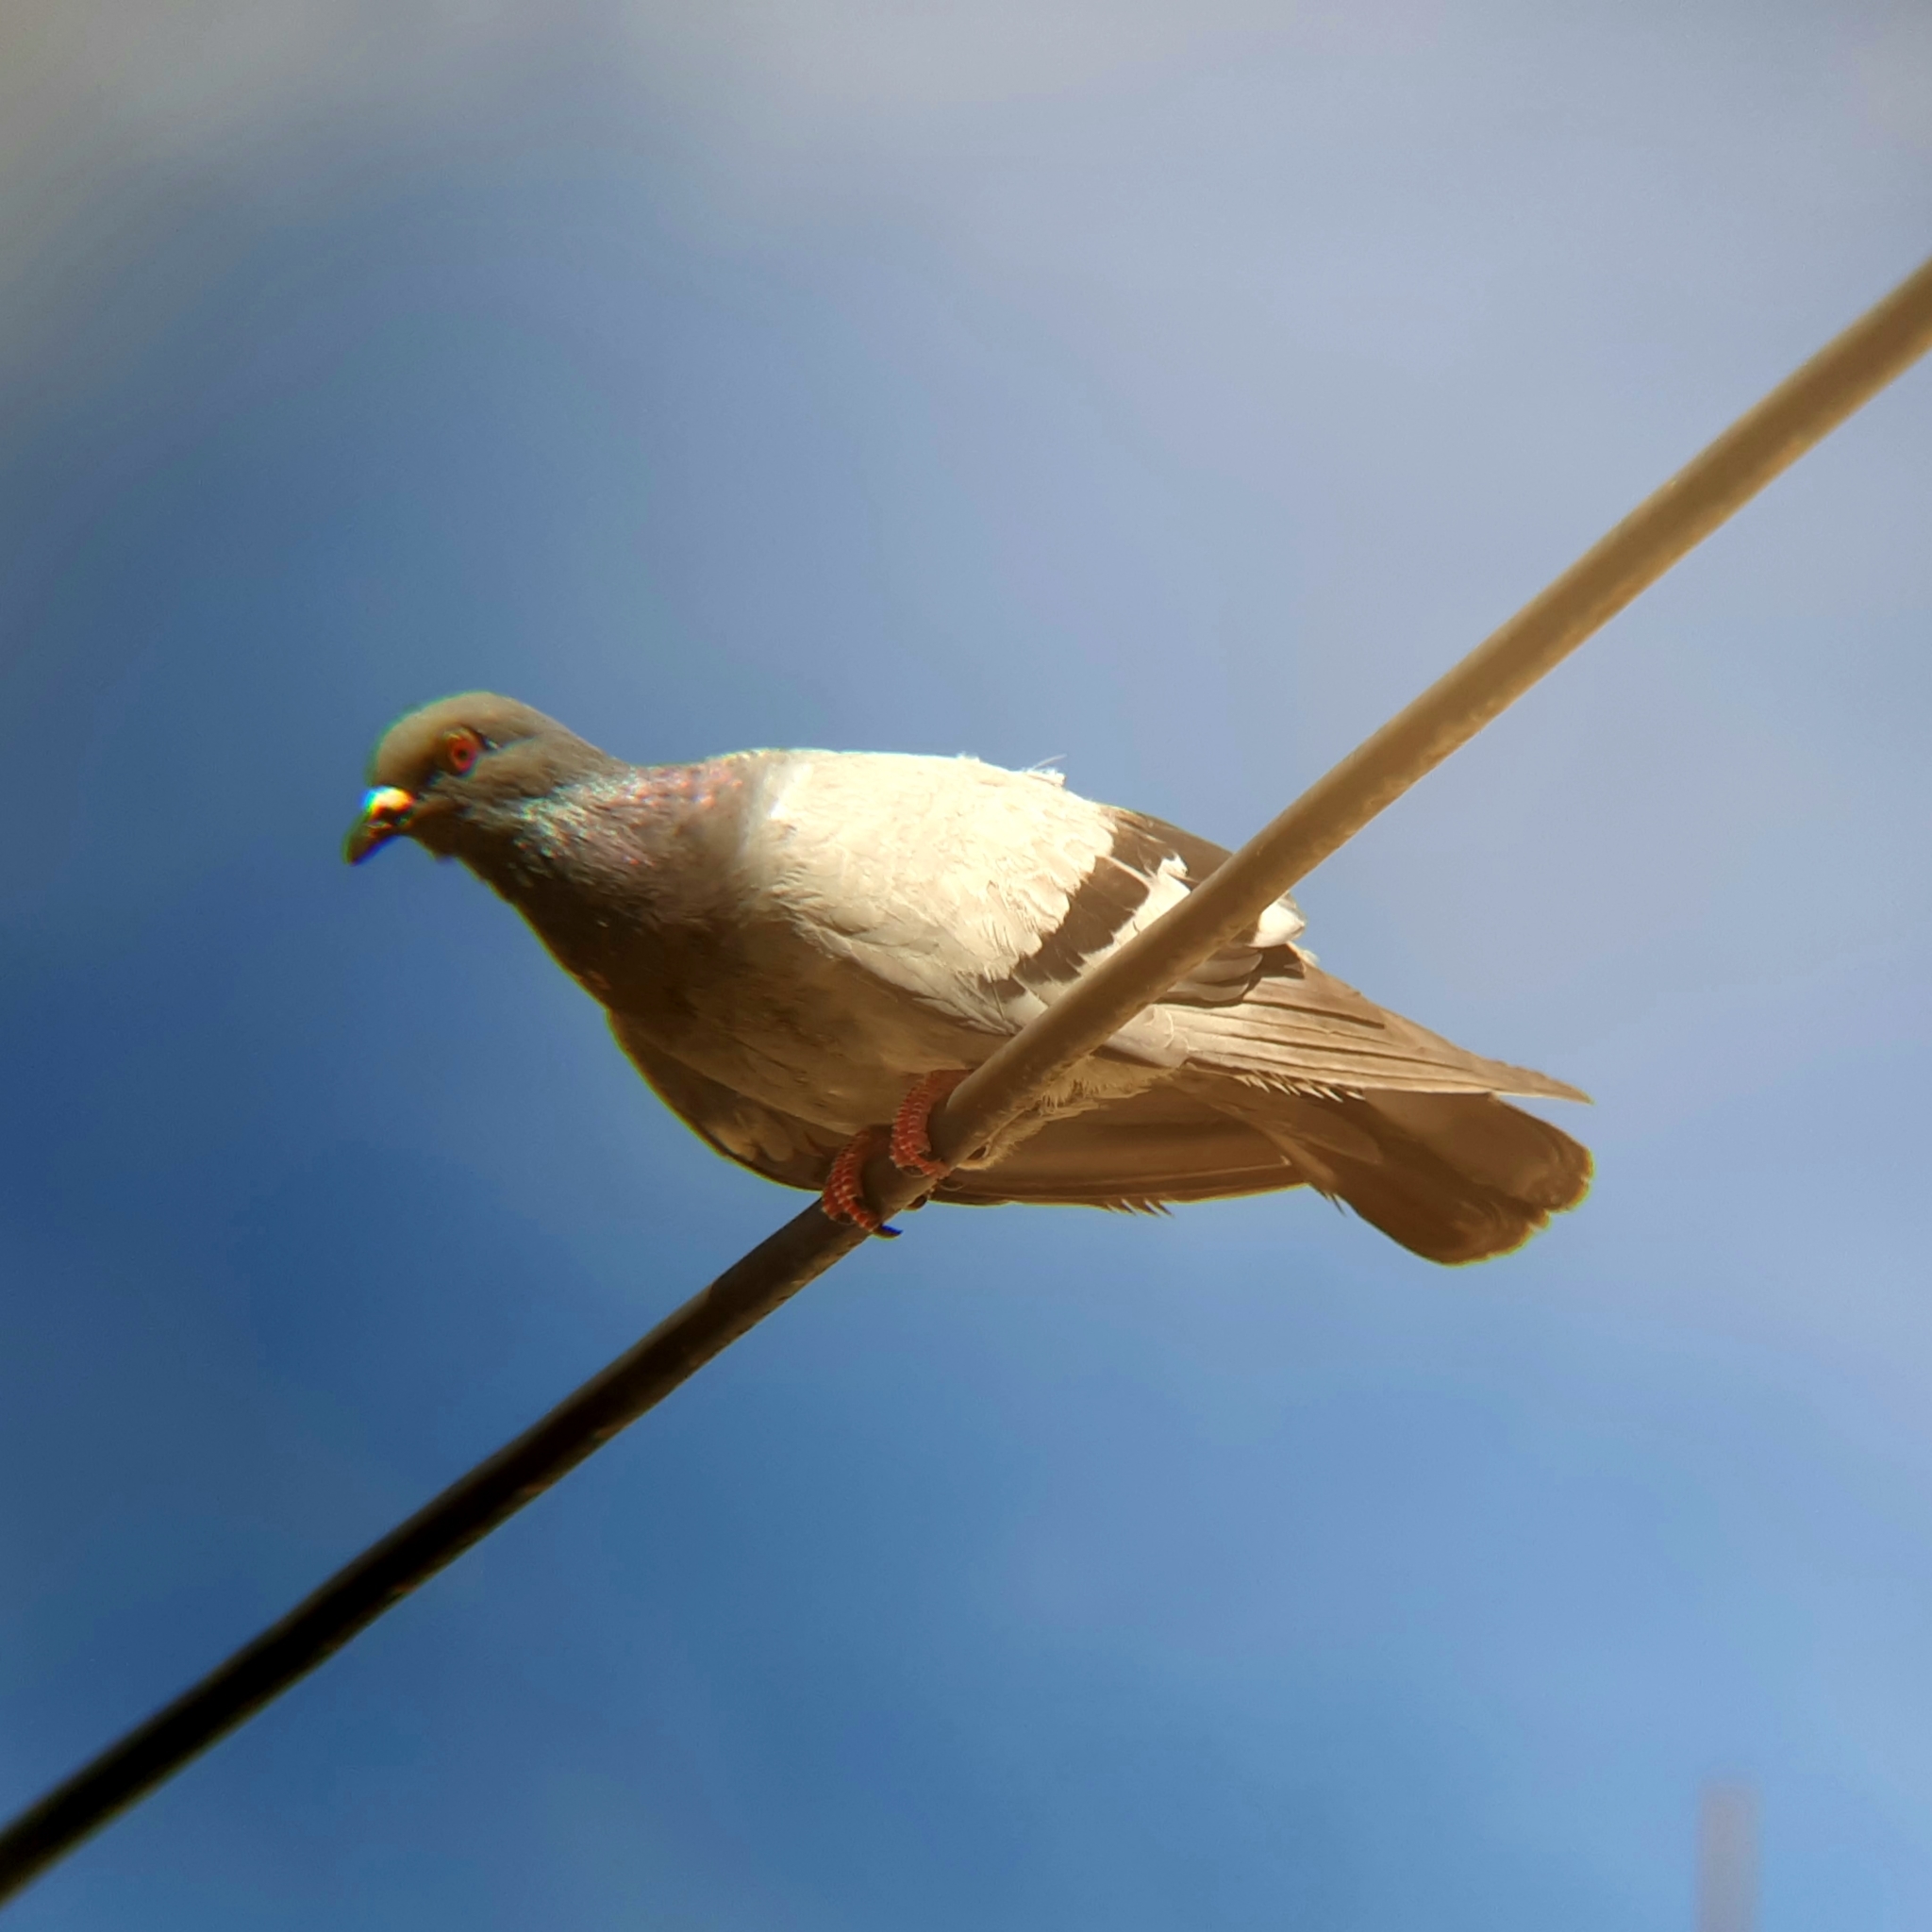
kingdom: Animalia
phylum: Chordata
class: Aves
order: Columbiformes
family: Columbidae
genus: Columba
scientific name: Columba livia
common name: Rock pigeon
